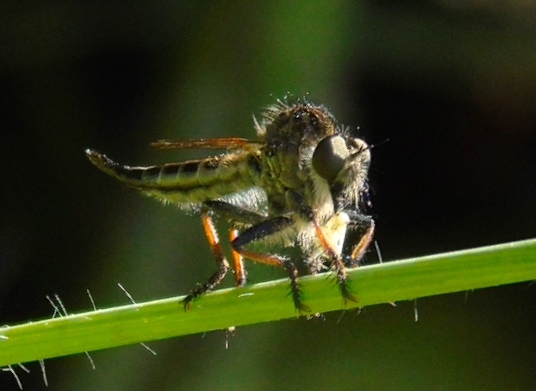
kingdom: Animalia
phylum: Arthropoda
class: Insecta
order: Diptera
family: Asilidae
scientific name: Asilidae
